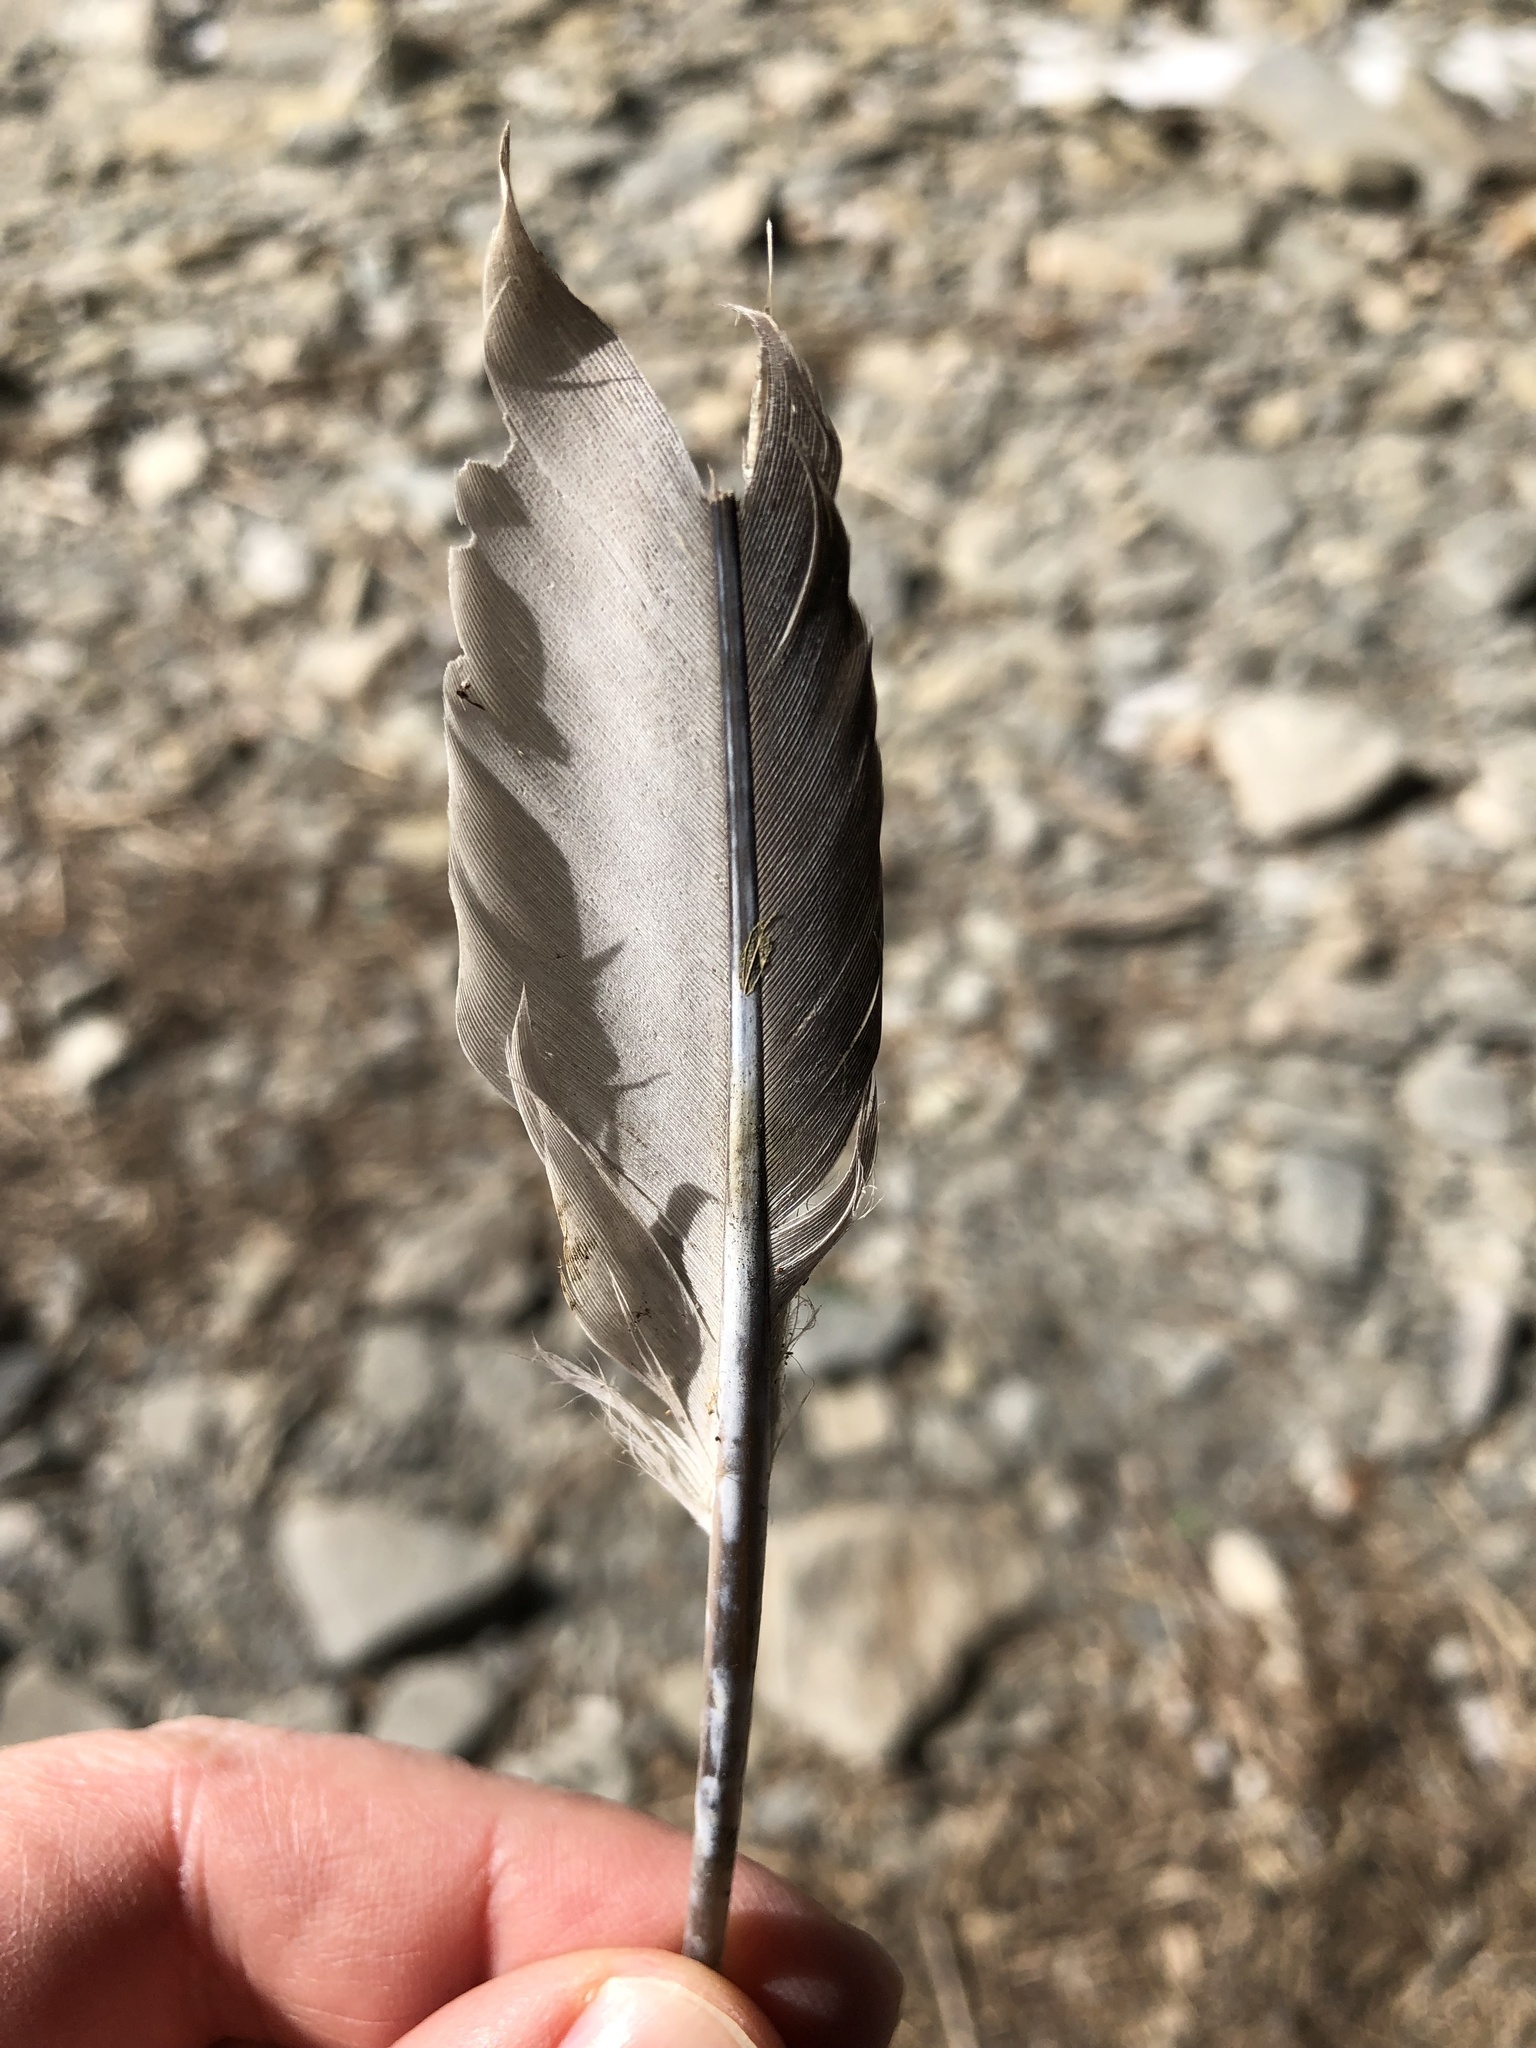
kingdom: Animalia
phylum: Chordata
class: Aves
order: Columbiformes
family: Columbidae
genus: Columba
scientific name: Columba livia
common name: Rock pigeon
